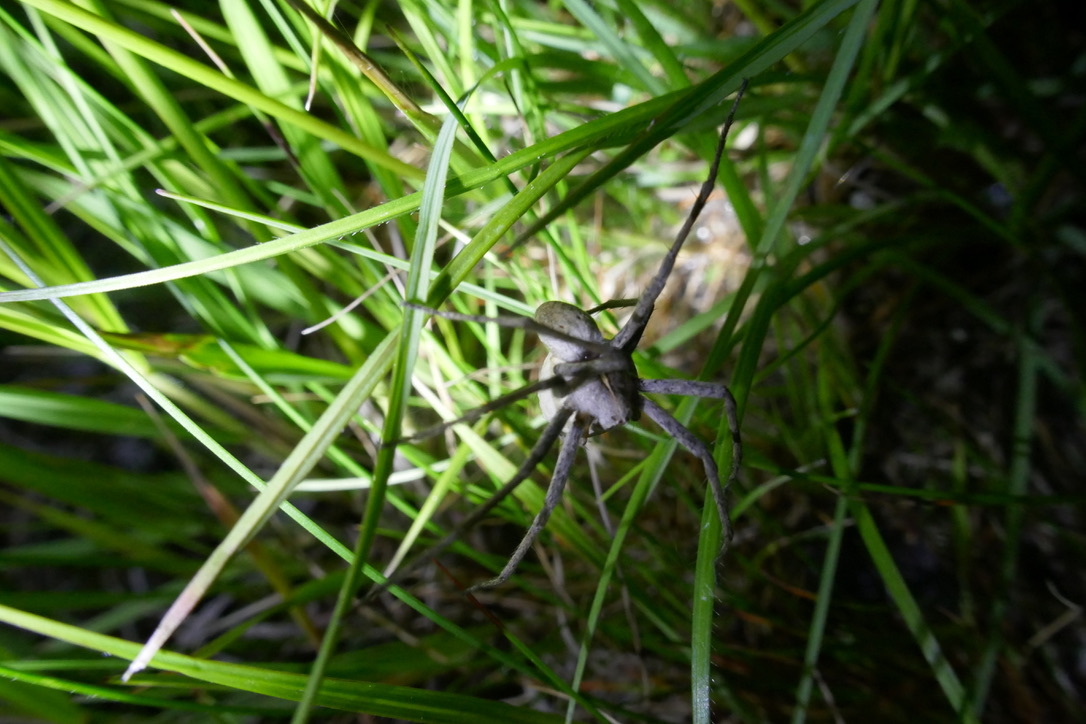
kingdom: Animalia
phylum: Arthropoda
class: Arachnida
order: Araneae
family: Pisauridae
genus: Pisaura
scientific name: Pisaura mirabilis
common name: Tent spider
